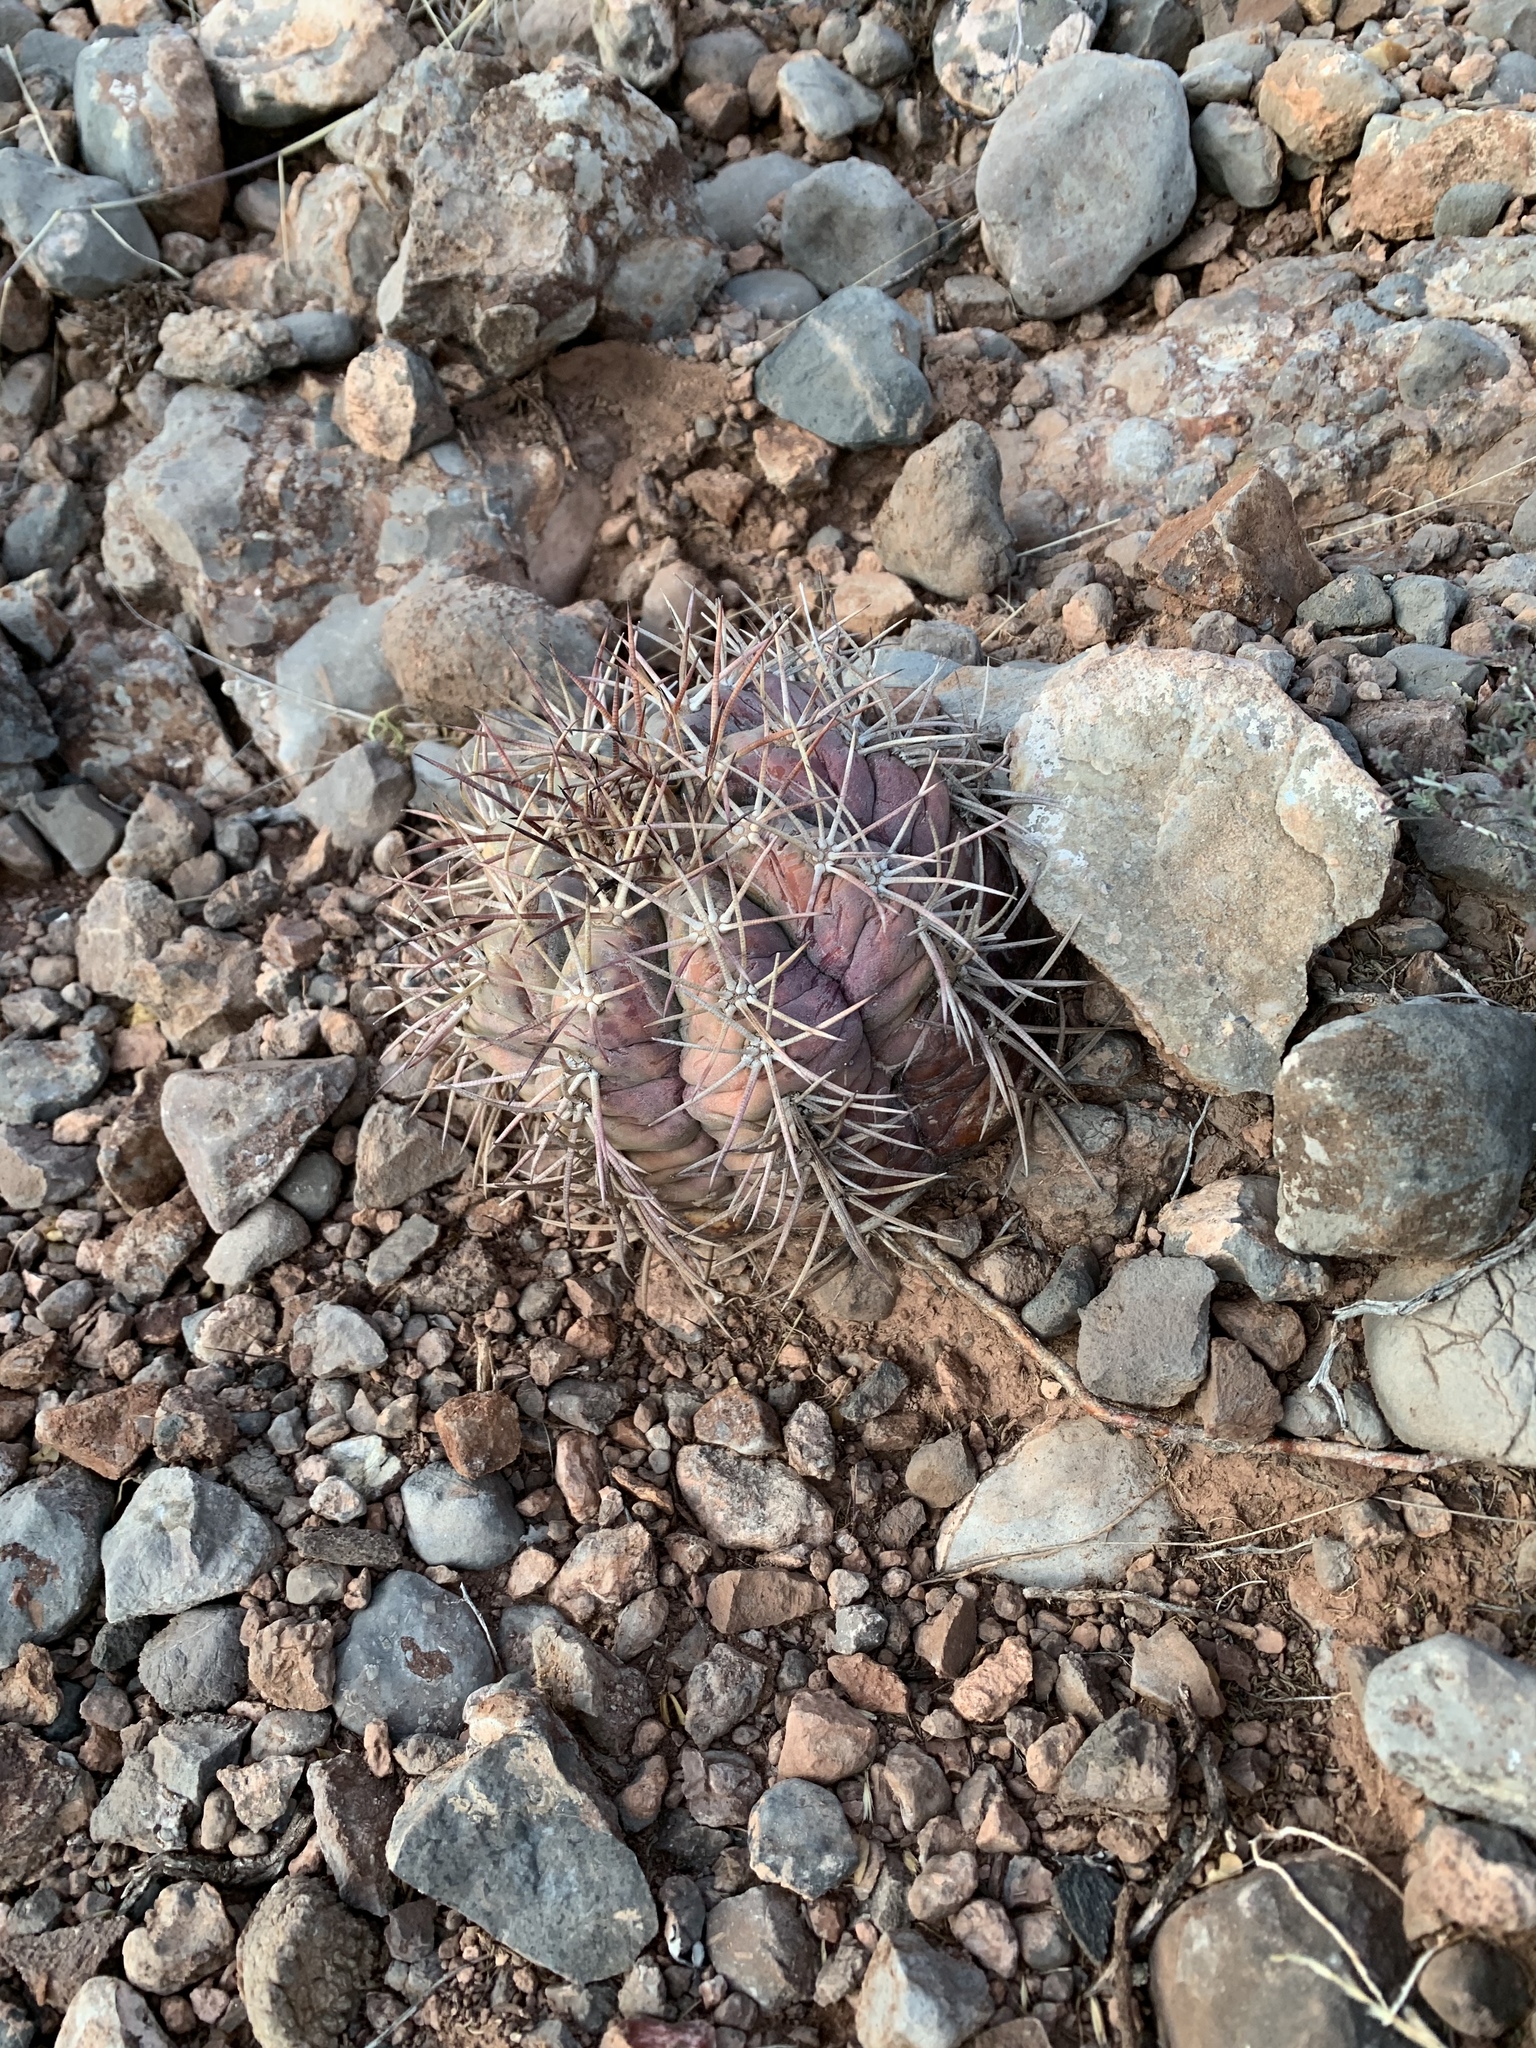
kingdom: Plantae
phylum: Tracheophyta
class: Magnoliopsida
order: Caryophyllales
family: Cactaceae
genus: Echinocactus
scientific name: Echinocactus horizonthalonius
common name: Devilshead
